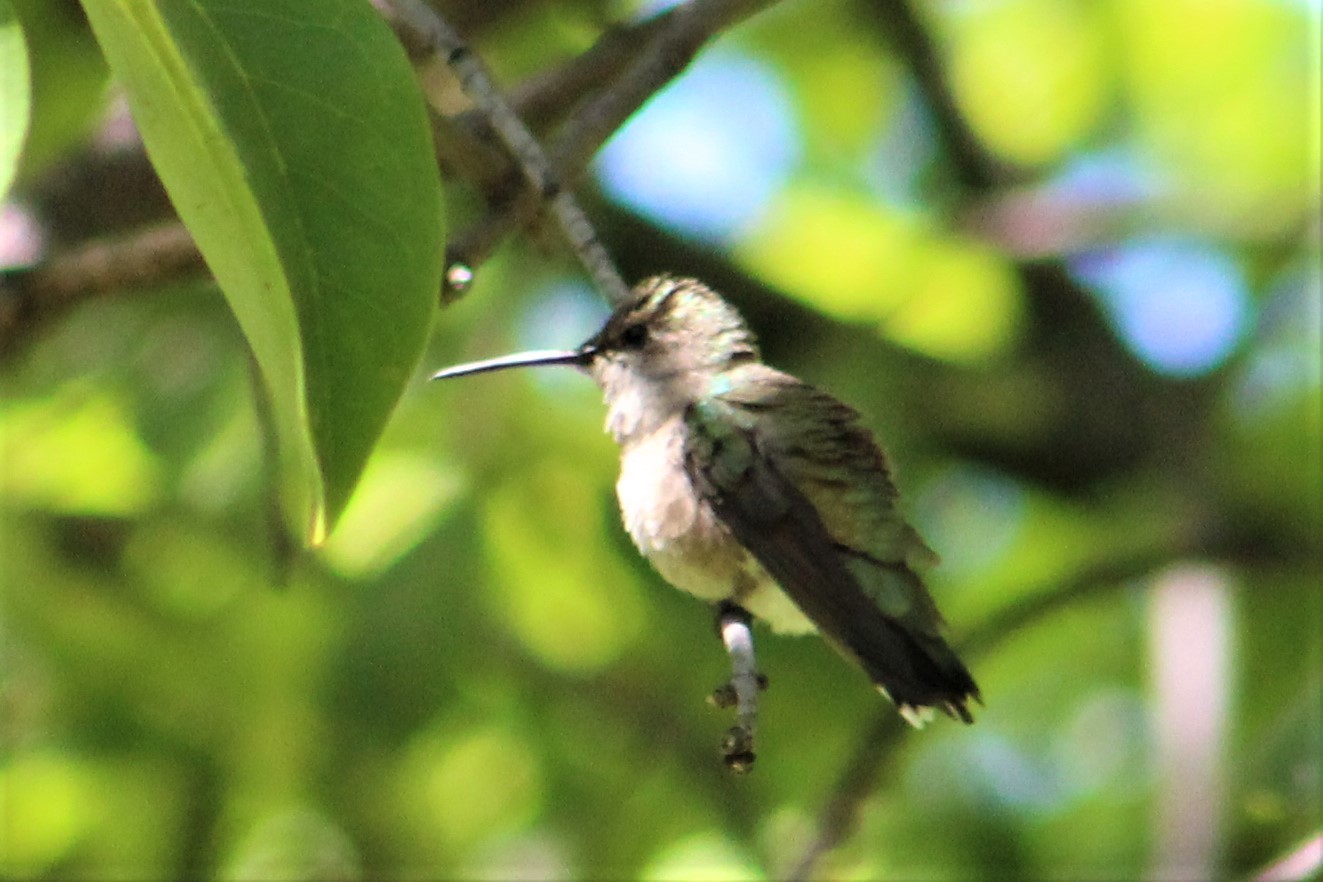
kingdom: Animalia
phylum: Chordata
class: Aves
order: Apodiformes
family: Trochilidae
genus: Archilochus
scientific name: Archilochus colubris
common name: Ruby-throated hummingbird
